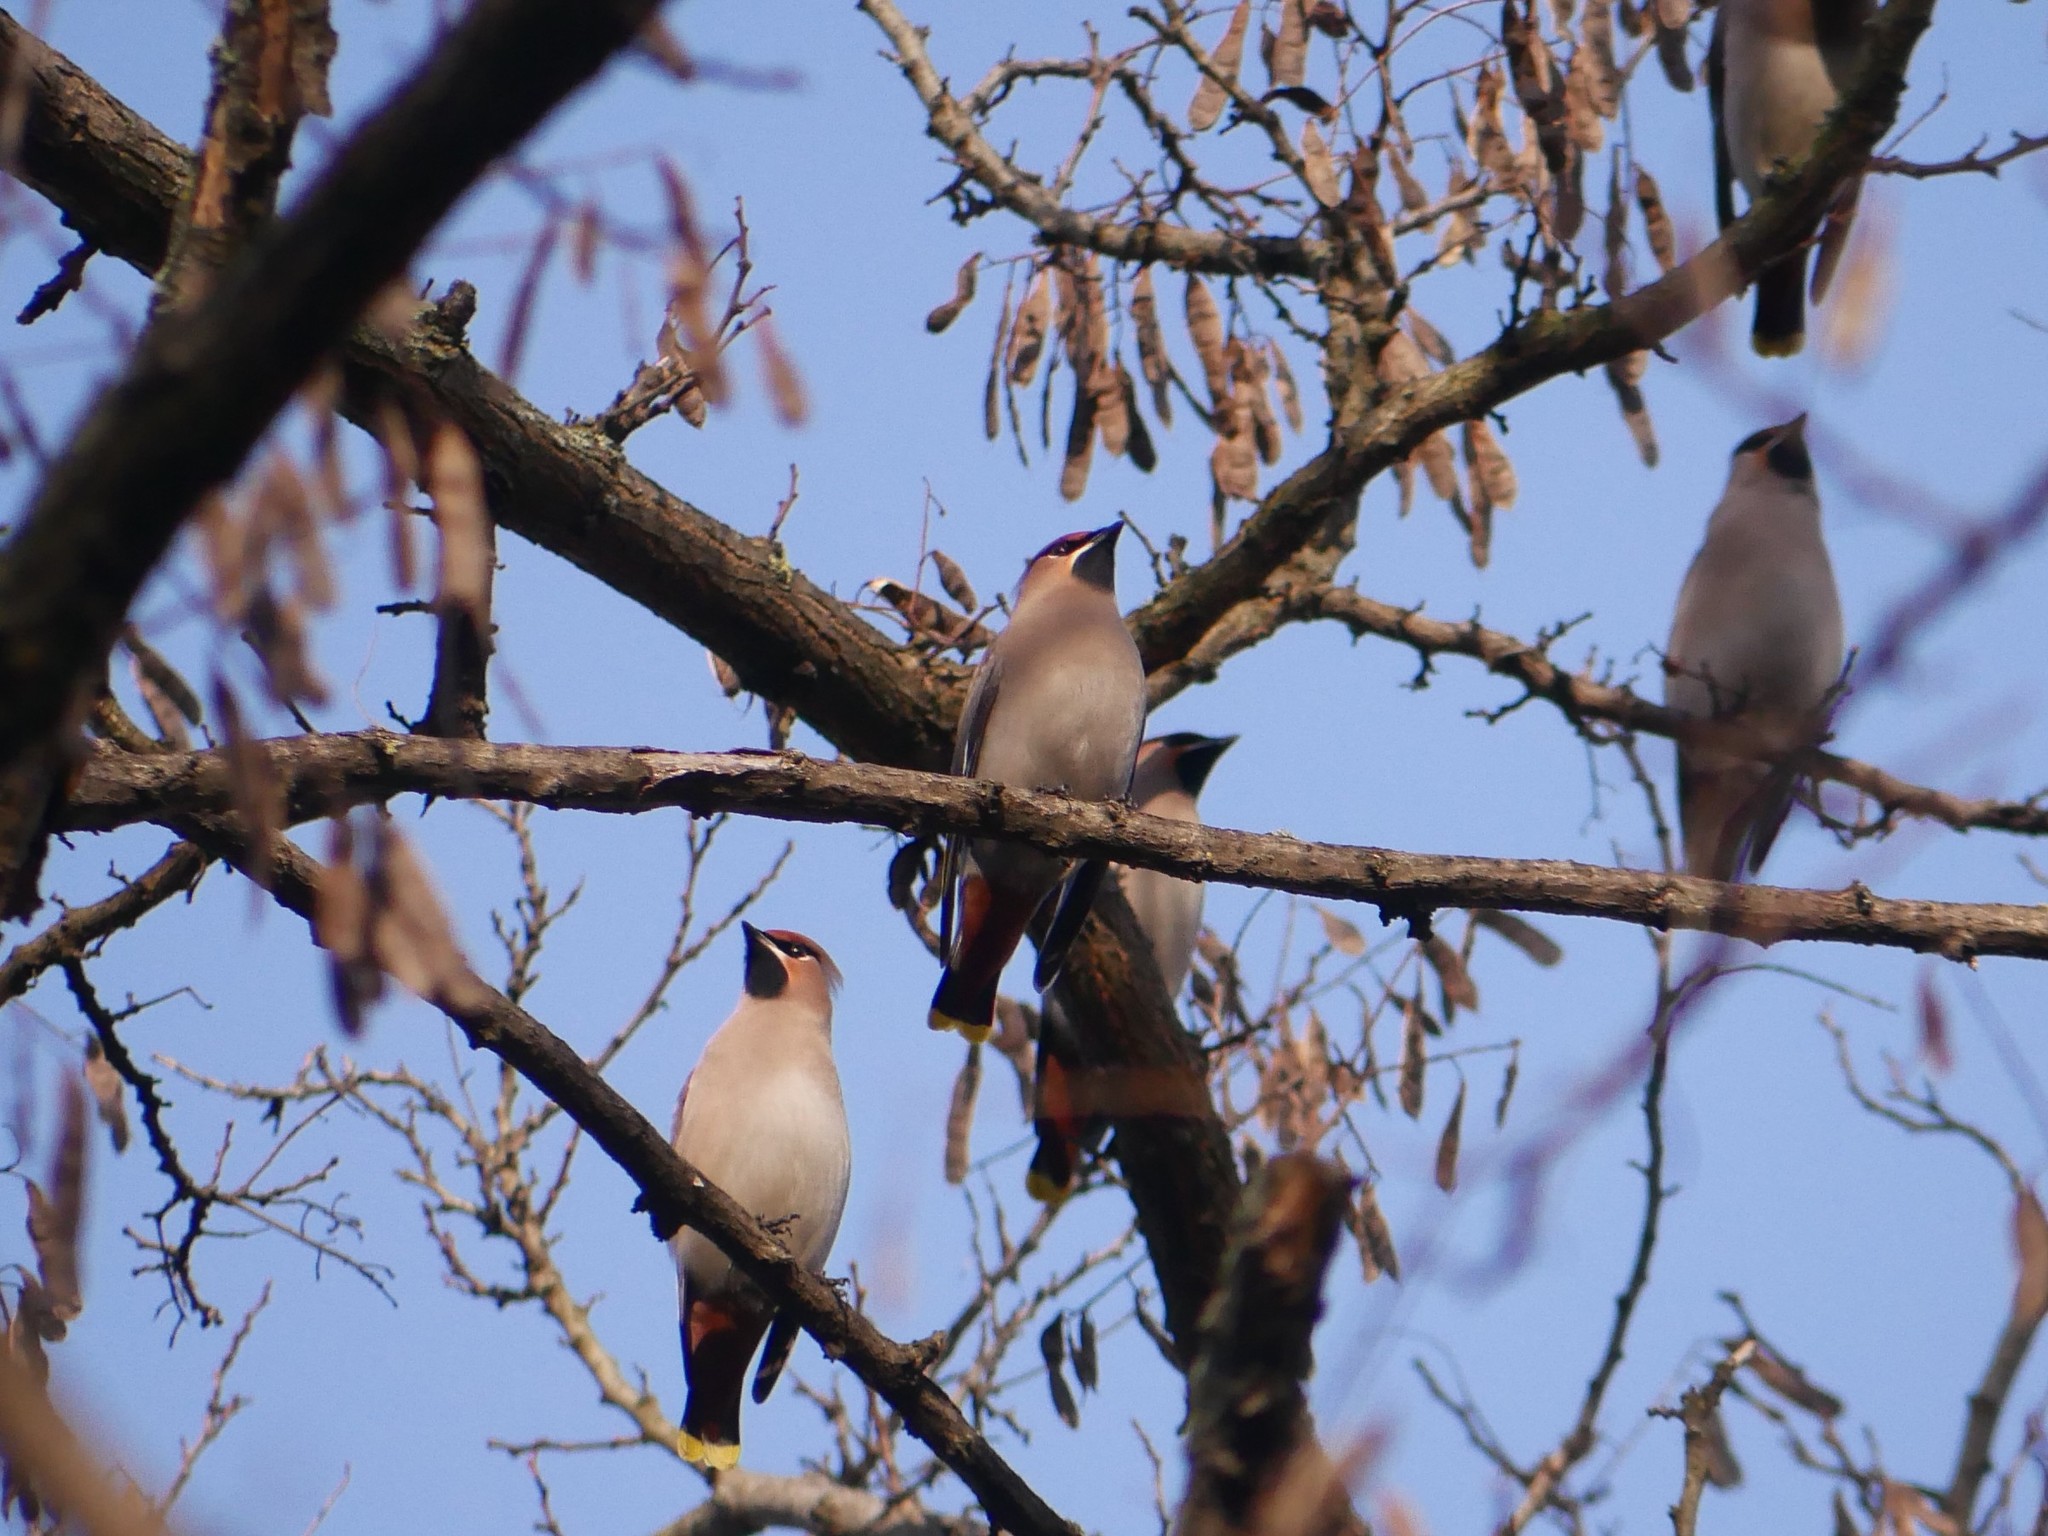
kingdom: Animalia
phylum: Chordata
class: Aves
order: Passeriformes
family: Bombycillidae
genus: Bombycilla
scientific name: Bombycilla garrulus
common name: Bohemian waxwing
